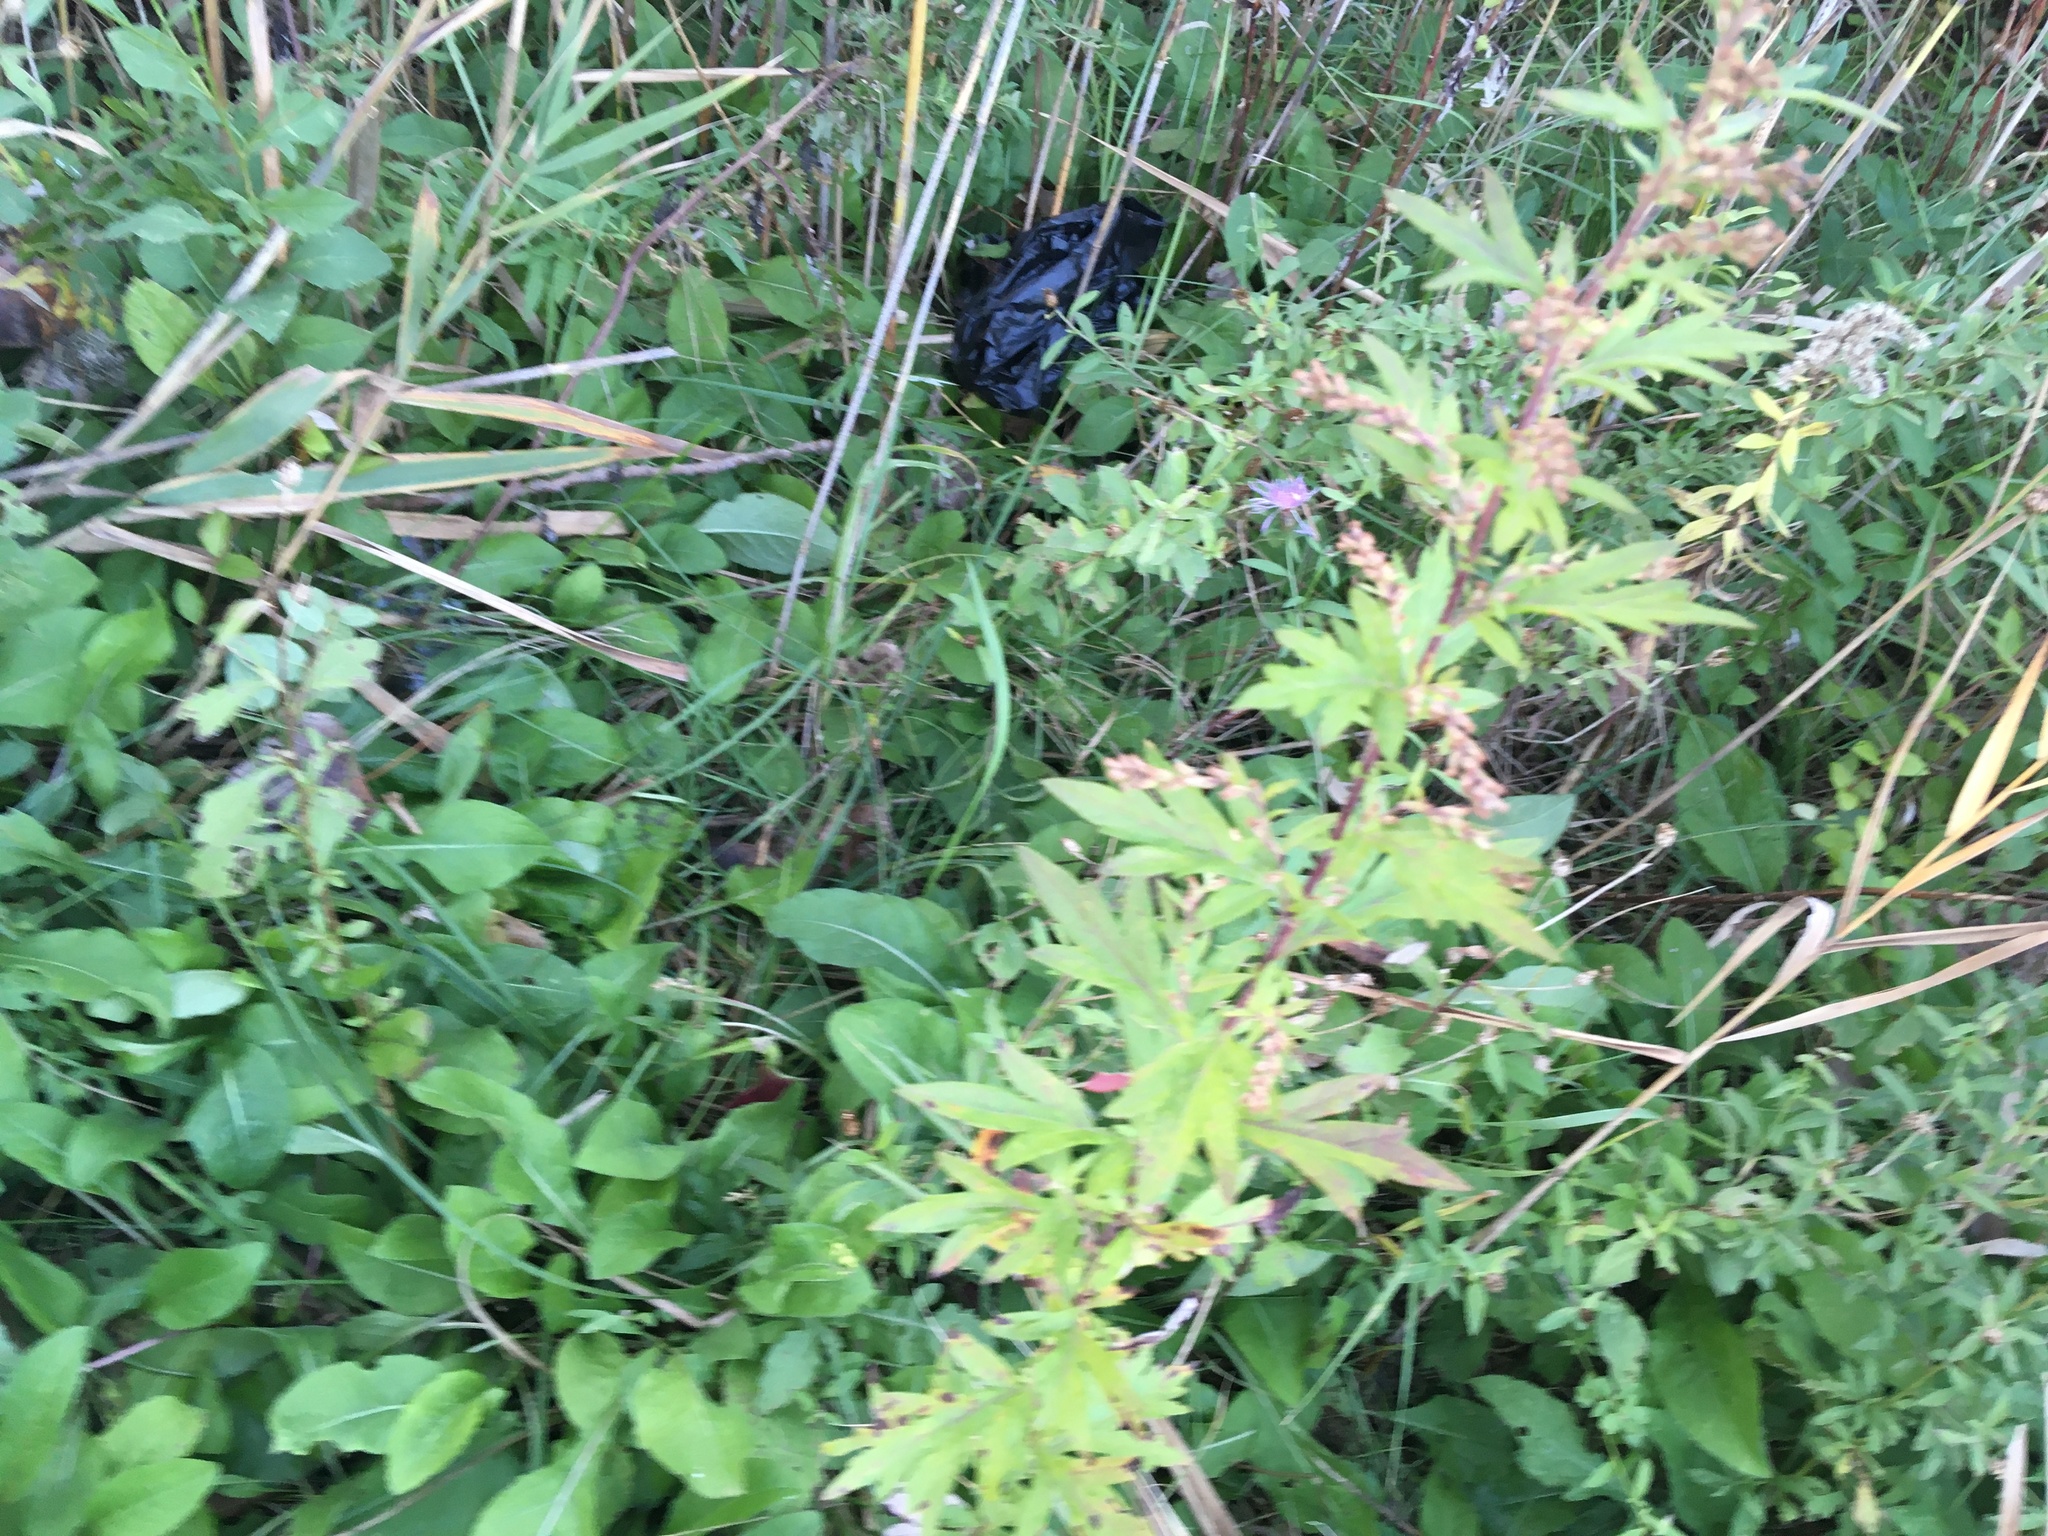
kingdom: Plantae
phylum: Tracheophyta
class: Magnoliopsida
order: Asterales
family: Asteraceae
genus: Artemisia
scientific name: Artemisia vulgaris
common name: Mugwort
